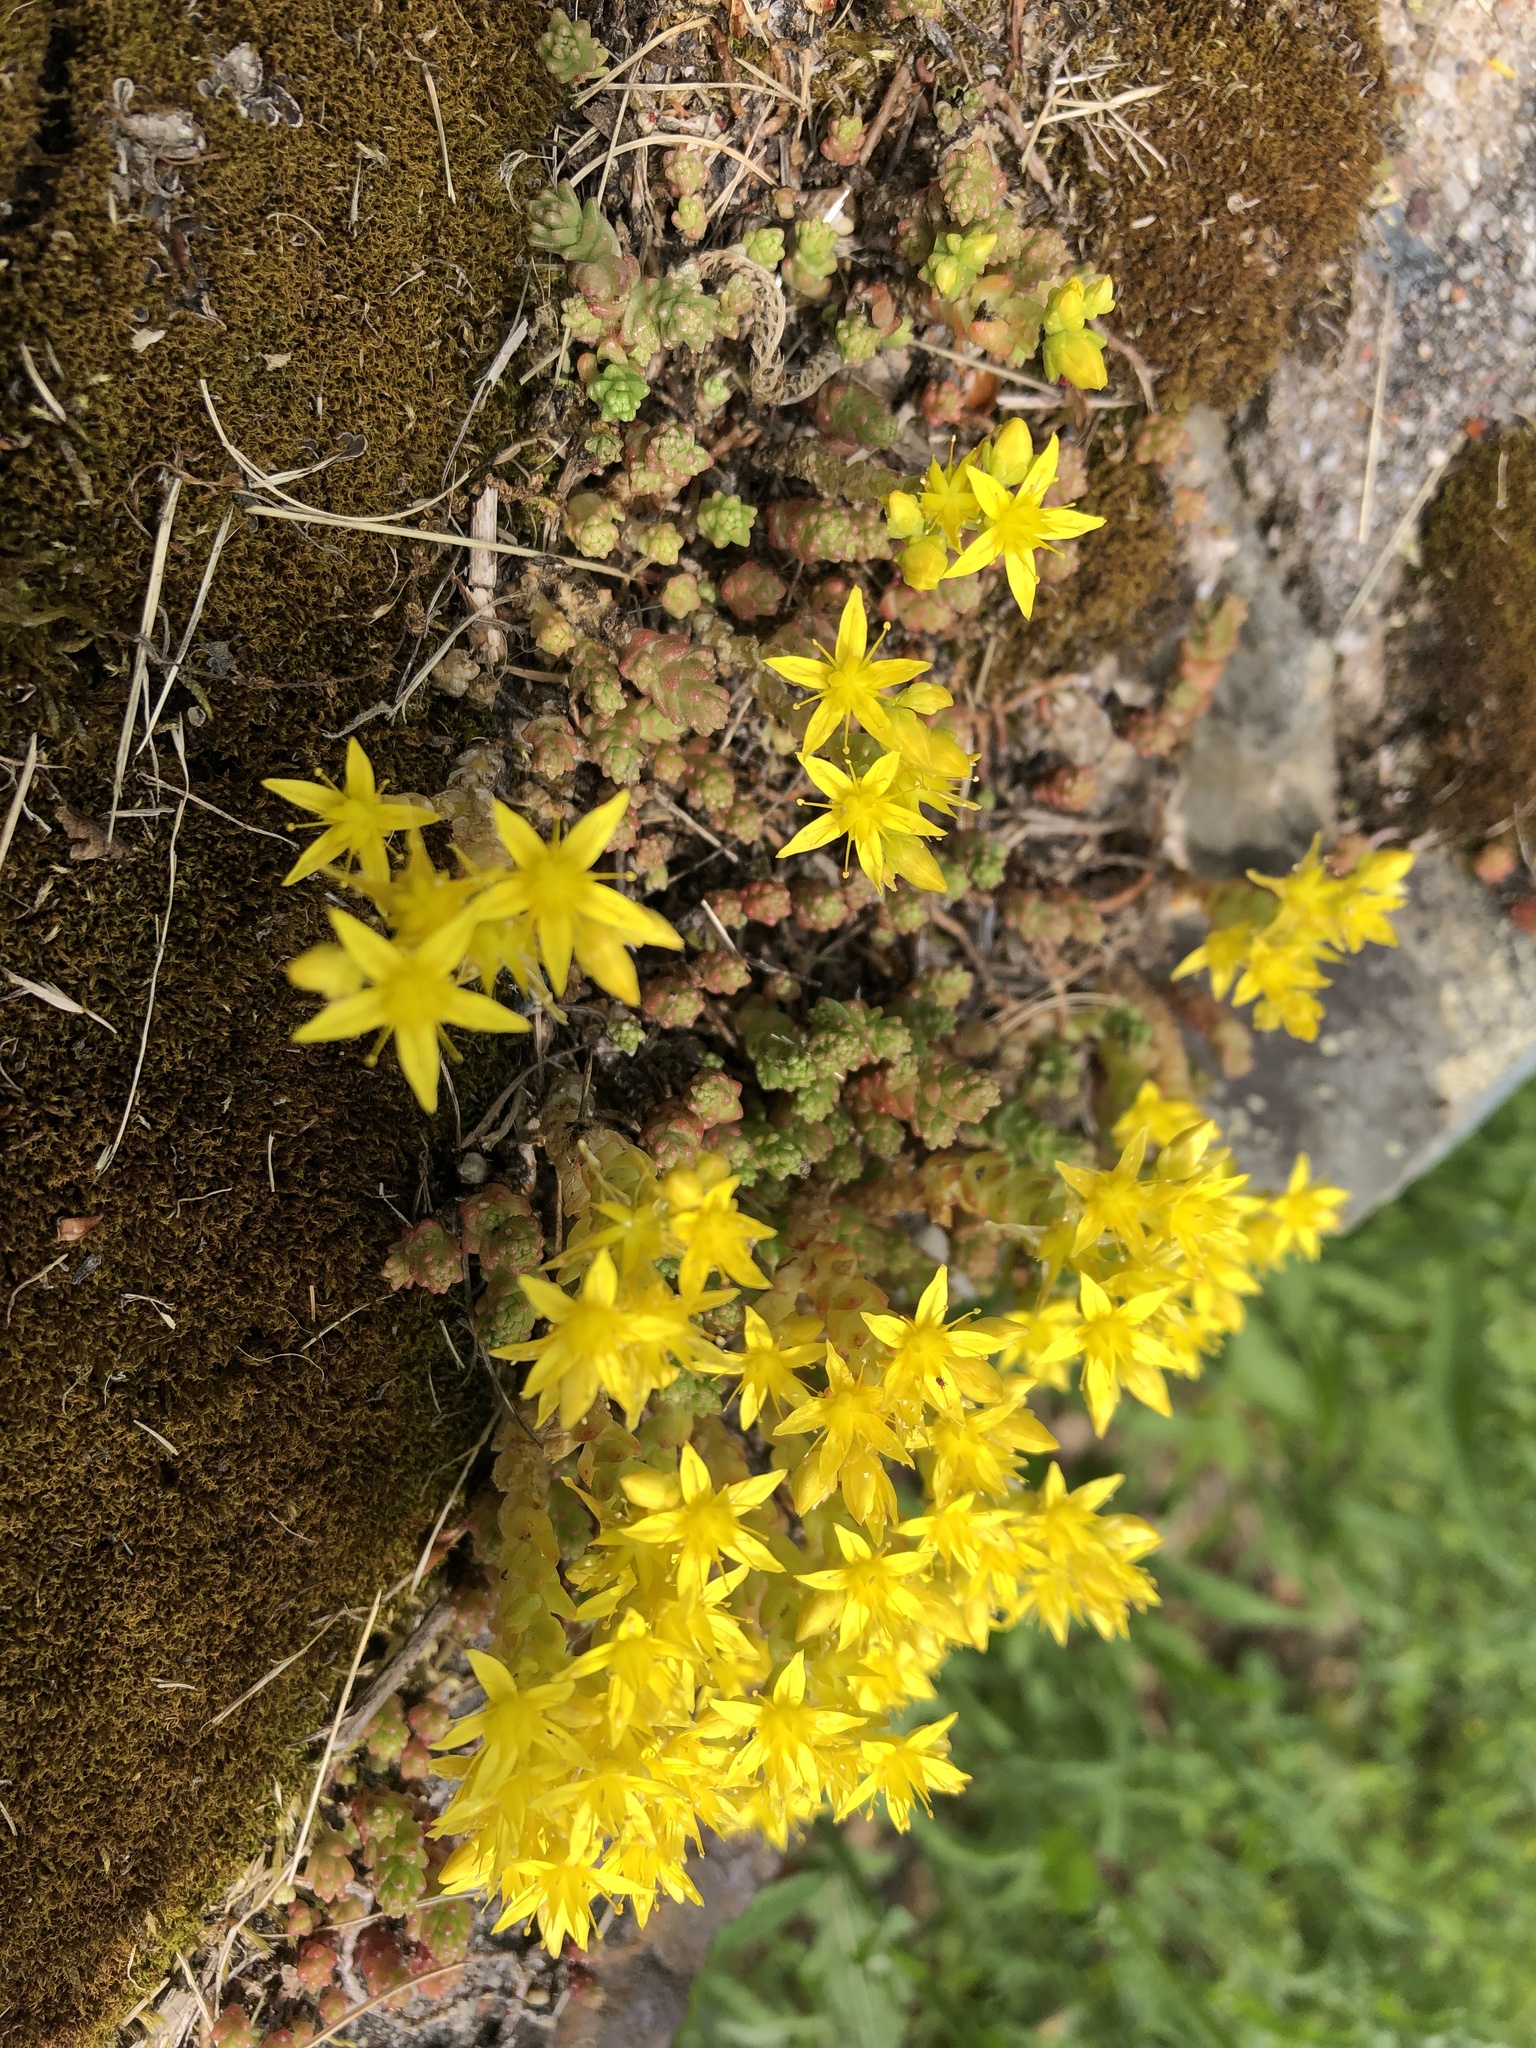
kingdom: Plantae
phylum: Tracheophyta
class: Magnoliopsida
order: Saxifragales
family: Crassulaceae
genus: Sedum
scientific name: Sedum acre
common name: Biting stonecrop
